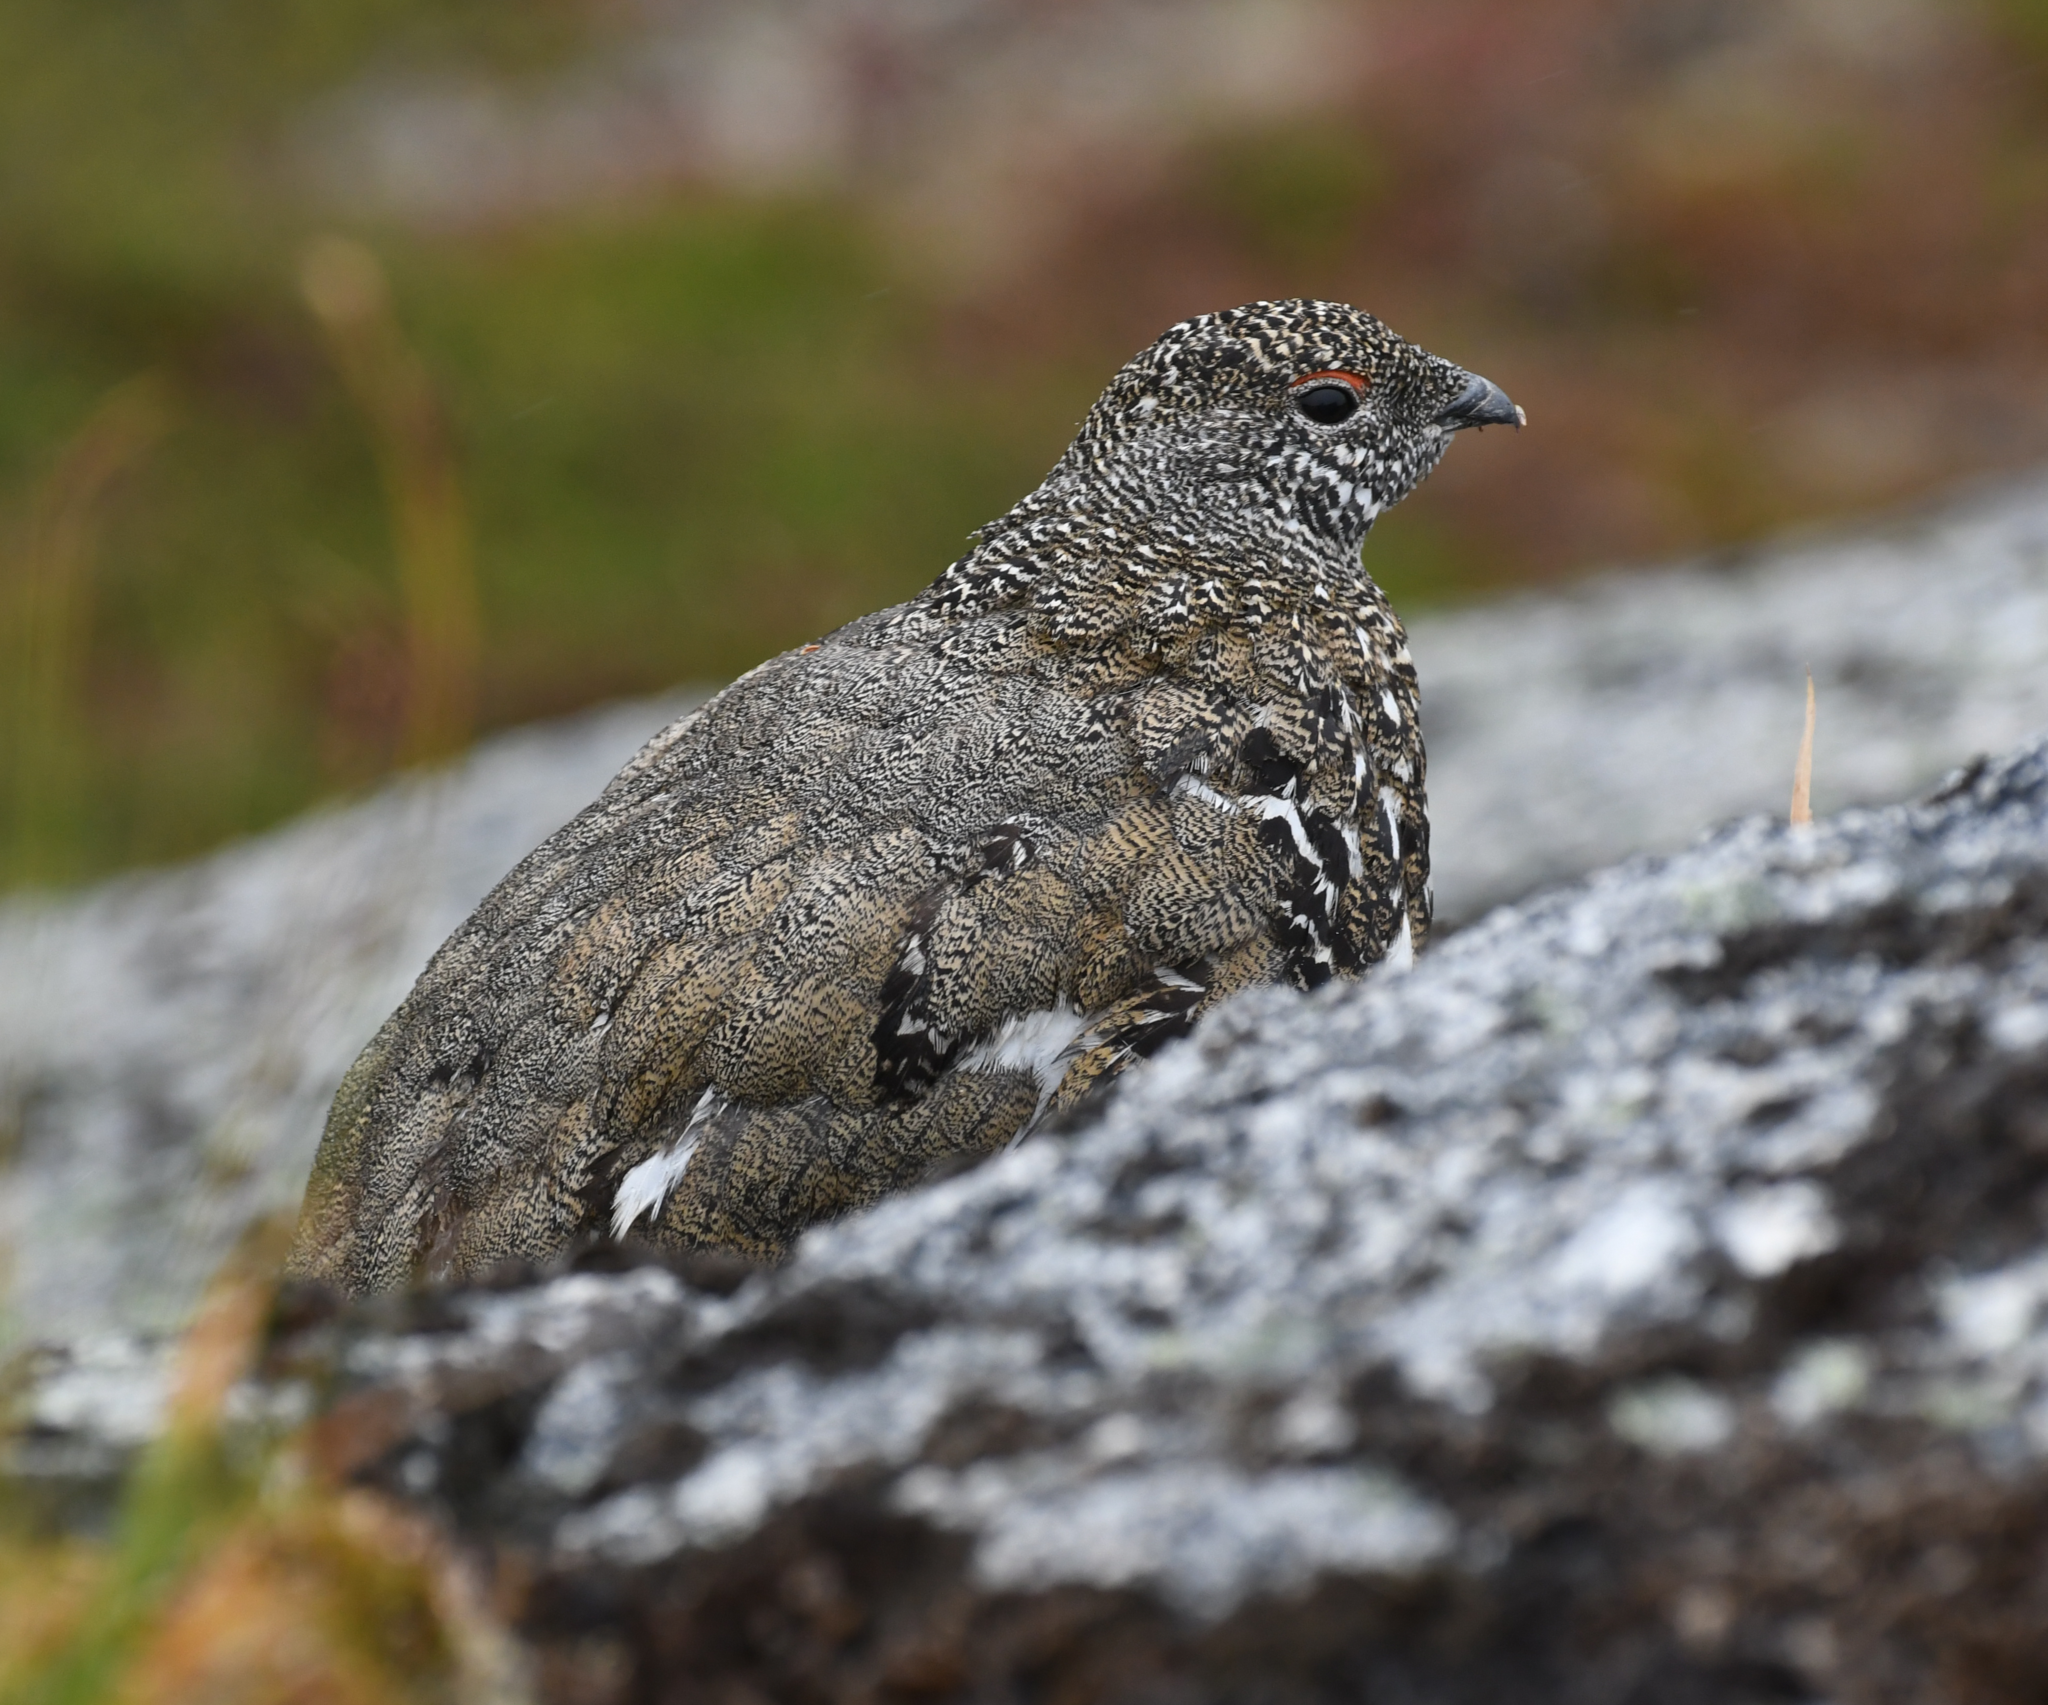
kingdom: Animalia
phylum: Chordata
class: Aves
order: Galliformes
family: Phasianidae
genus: Lagopus
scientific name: Lagopus leucura
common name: White-tailed ptarmigan
